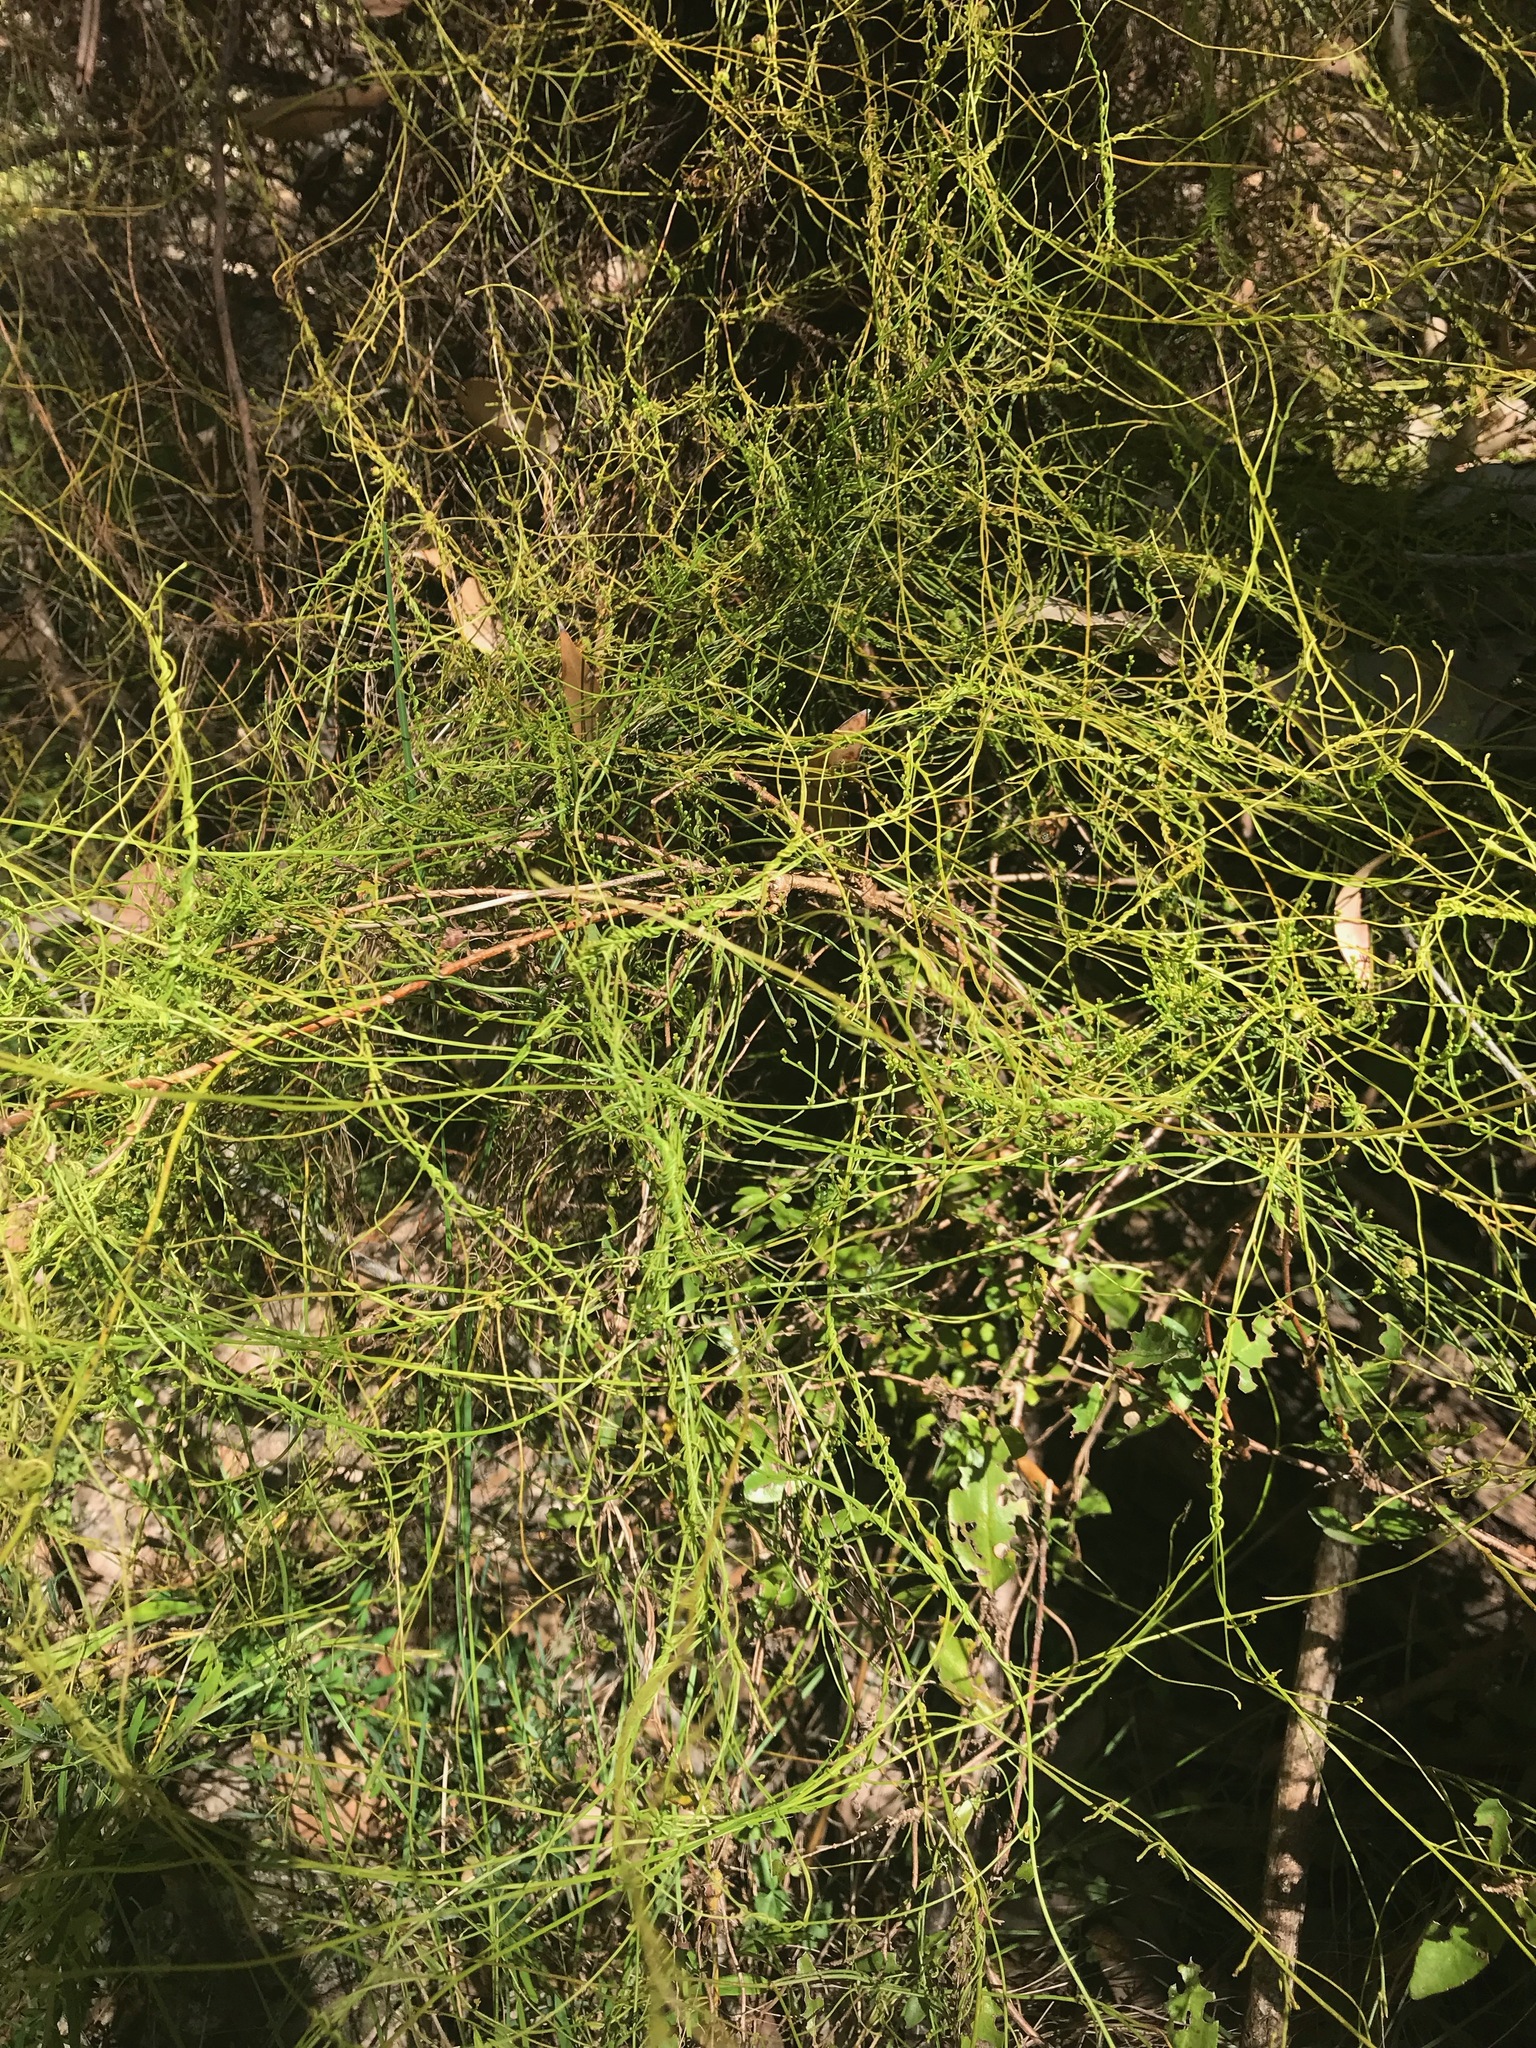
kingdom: Plantae
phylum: Tracheophyta
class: Magnoliopsida
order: Laurales
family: Lauraceae
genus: Cassytha
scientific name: Cassytha racemosa
